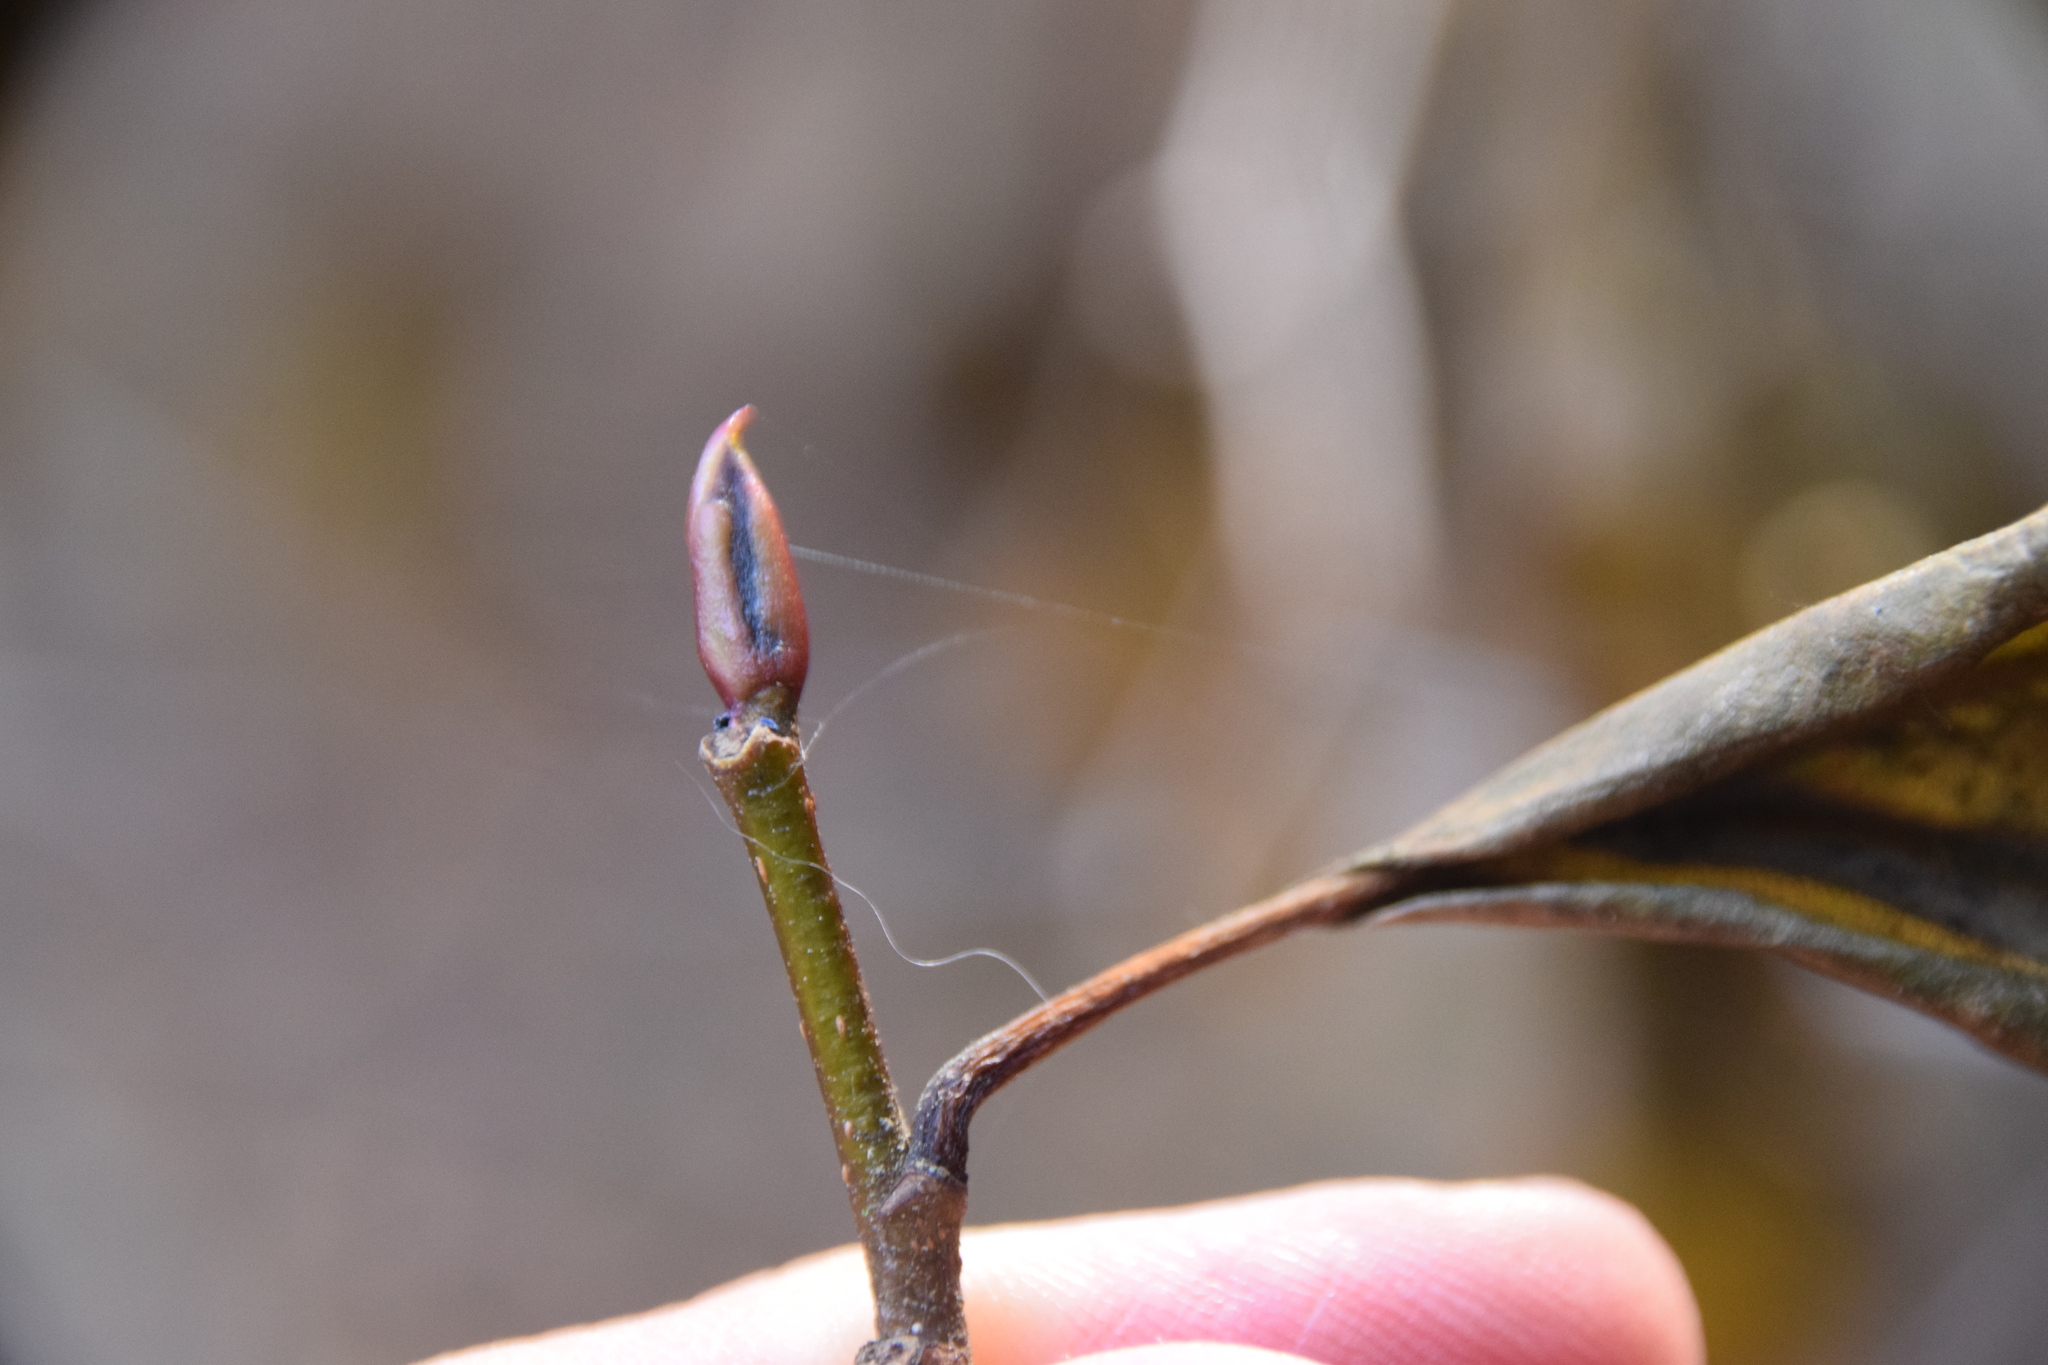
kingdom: Plantae
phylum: Tracheophyta
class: Magnoliopsida
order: Fagales
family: Betulaceae
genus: Alnus
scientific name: Alnus alnobetula
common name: Green alder
